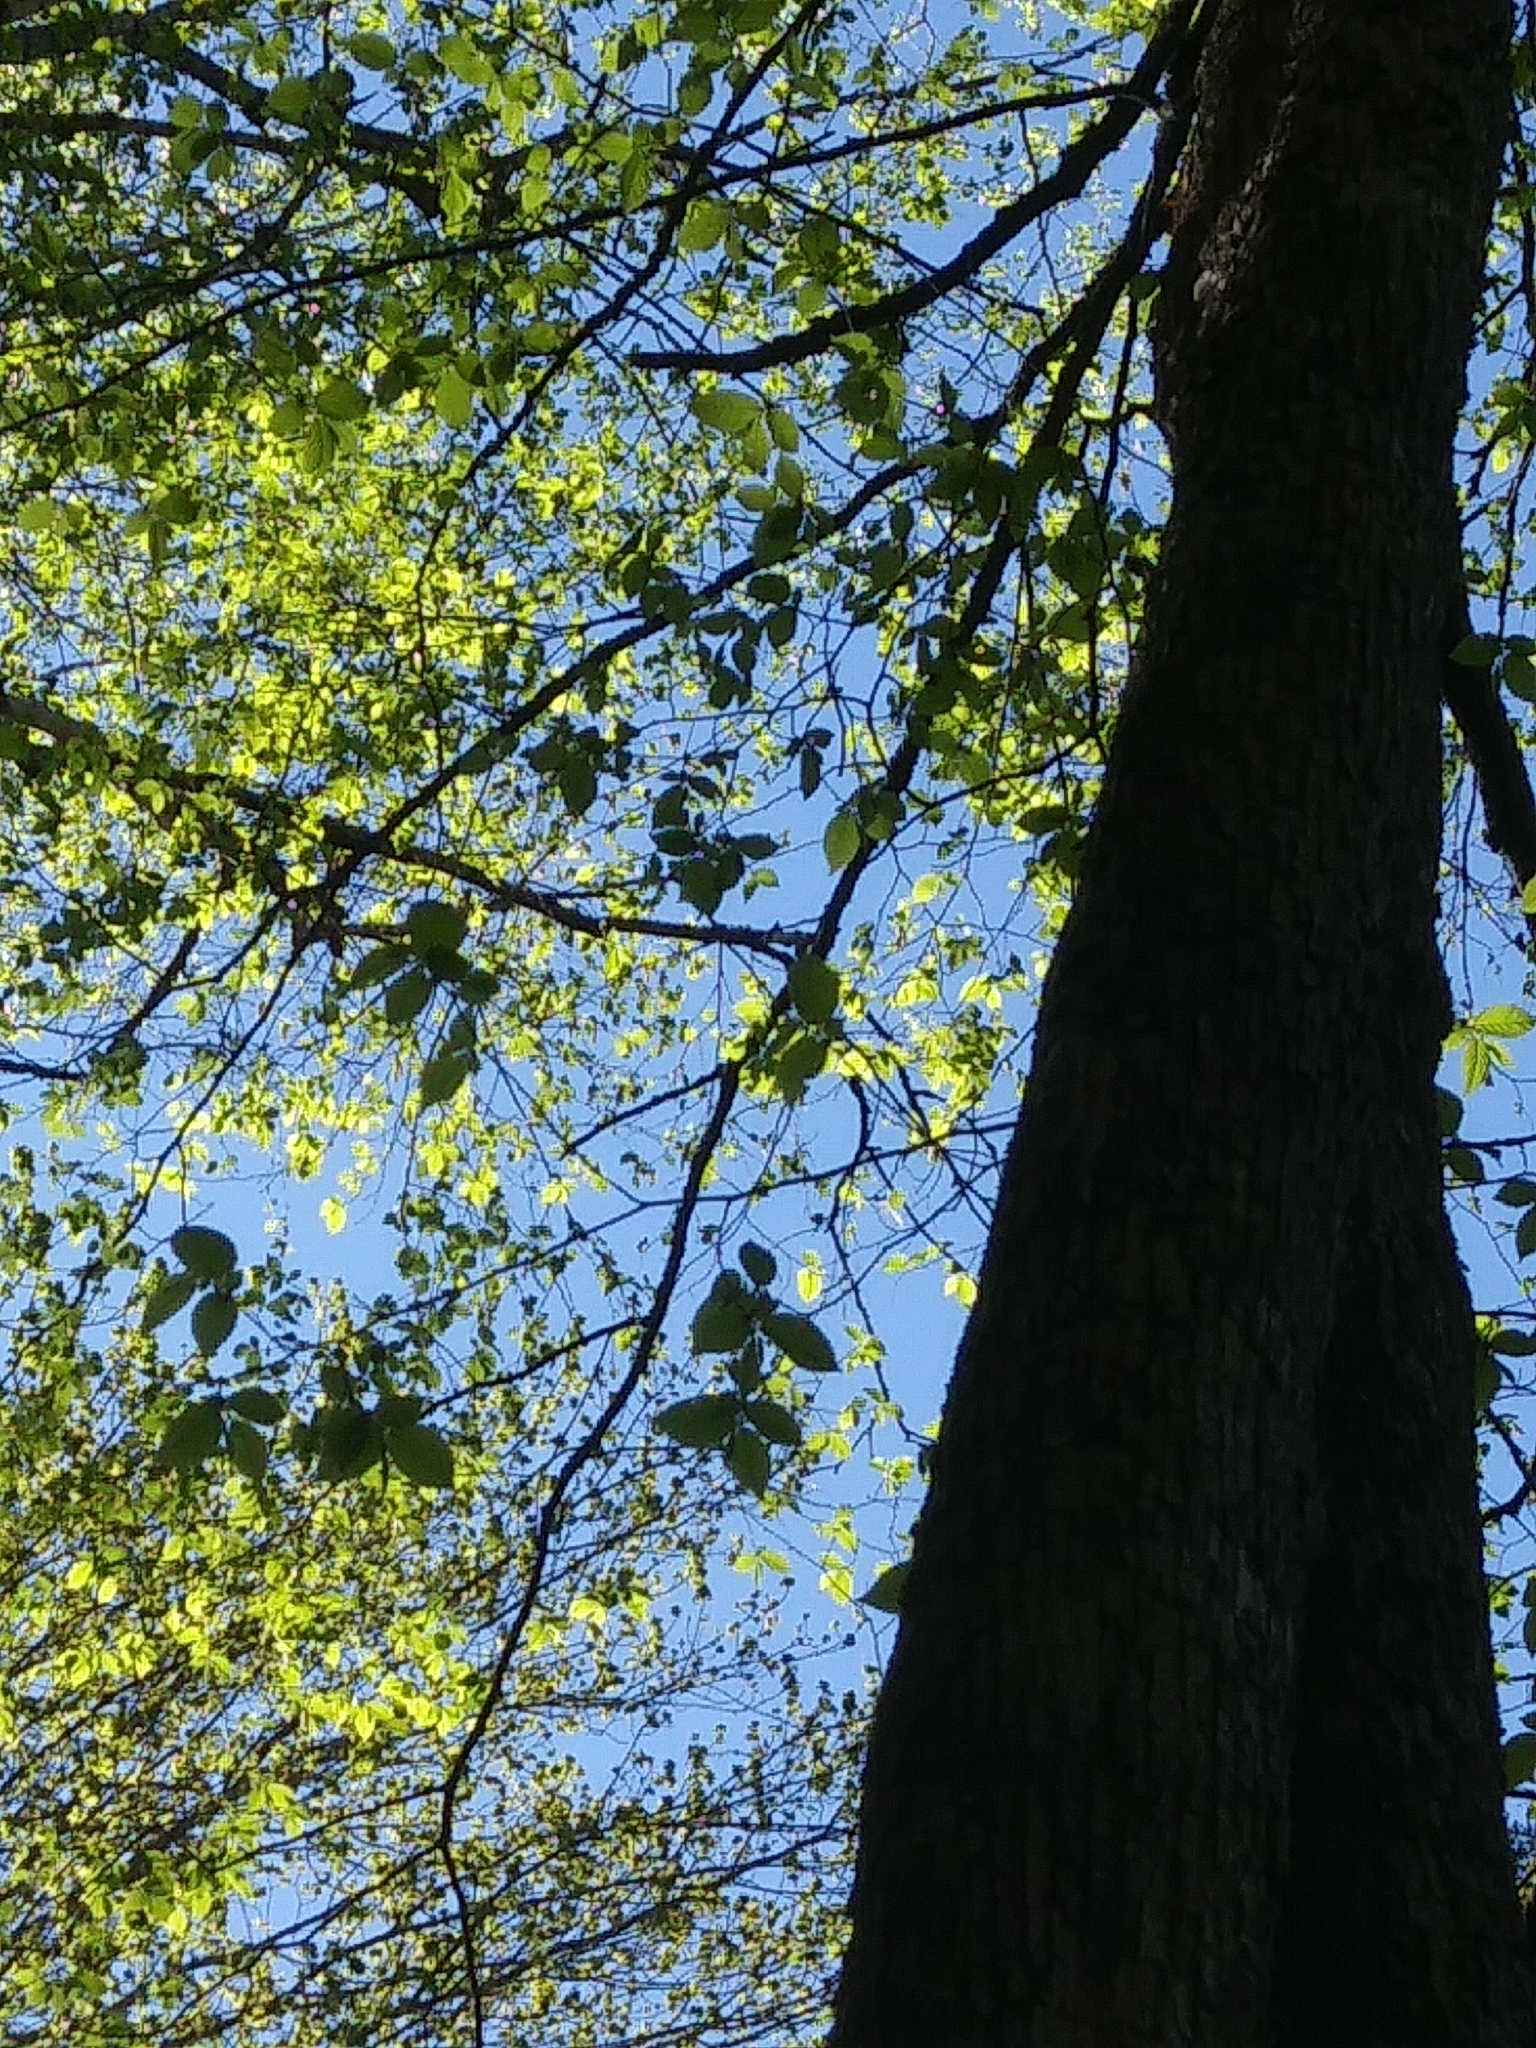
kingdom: Plantae
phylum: Tracheophyta
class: Magnoliopsida
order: Fagales
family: Betulaceae
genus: Ostrya
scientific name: Ostrya virginiana
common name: Ironwood
